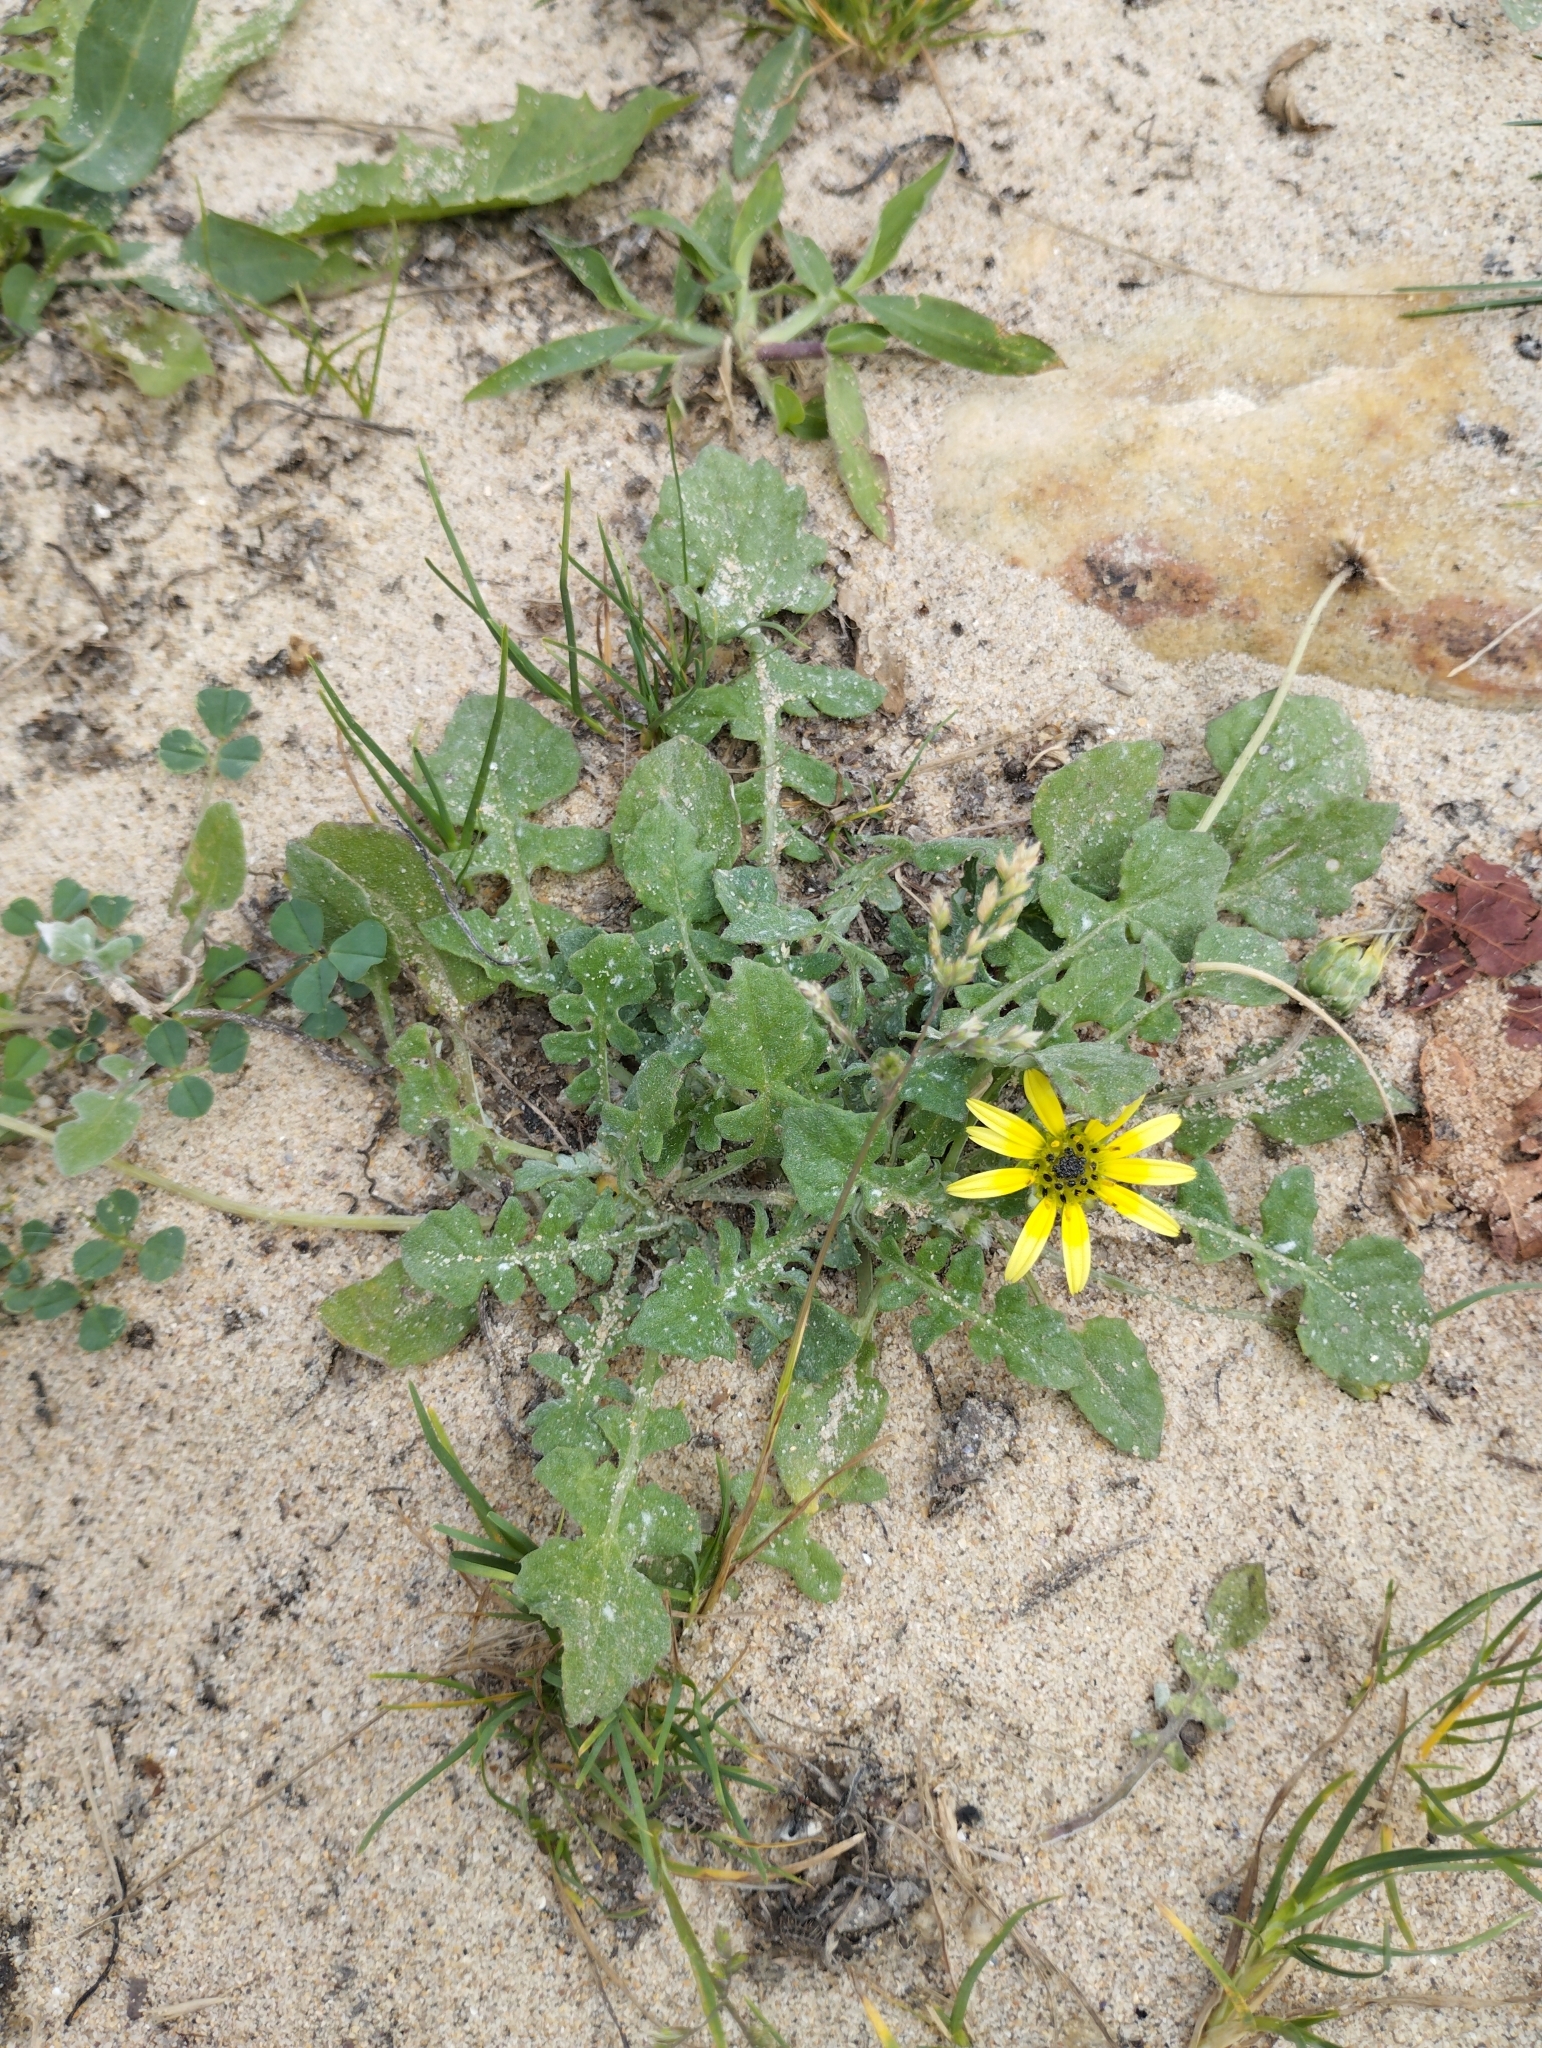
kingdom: Plantae
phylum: Tracheophyta
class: Magnoliopsida
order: Asterales
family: Asteraceae
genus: Arctotheca
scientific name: Arctotheca calendula
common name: Capeweed
